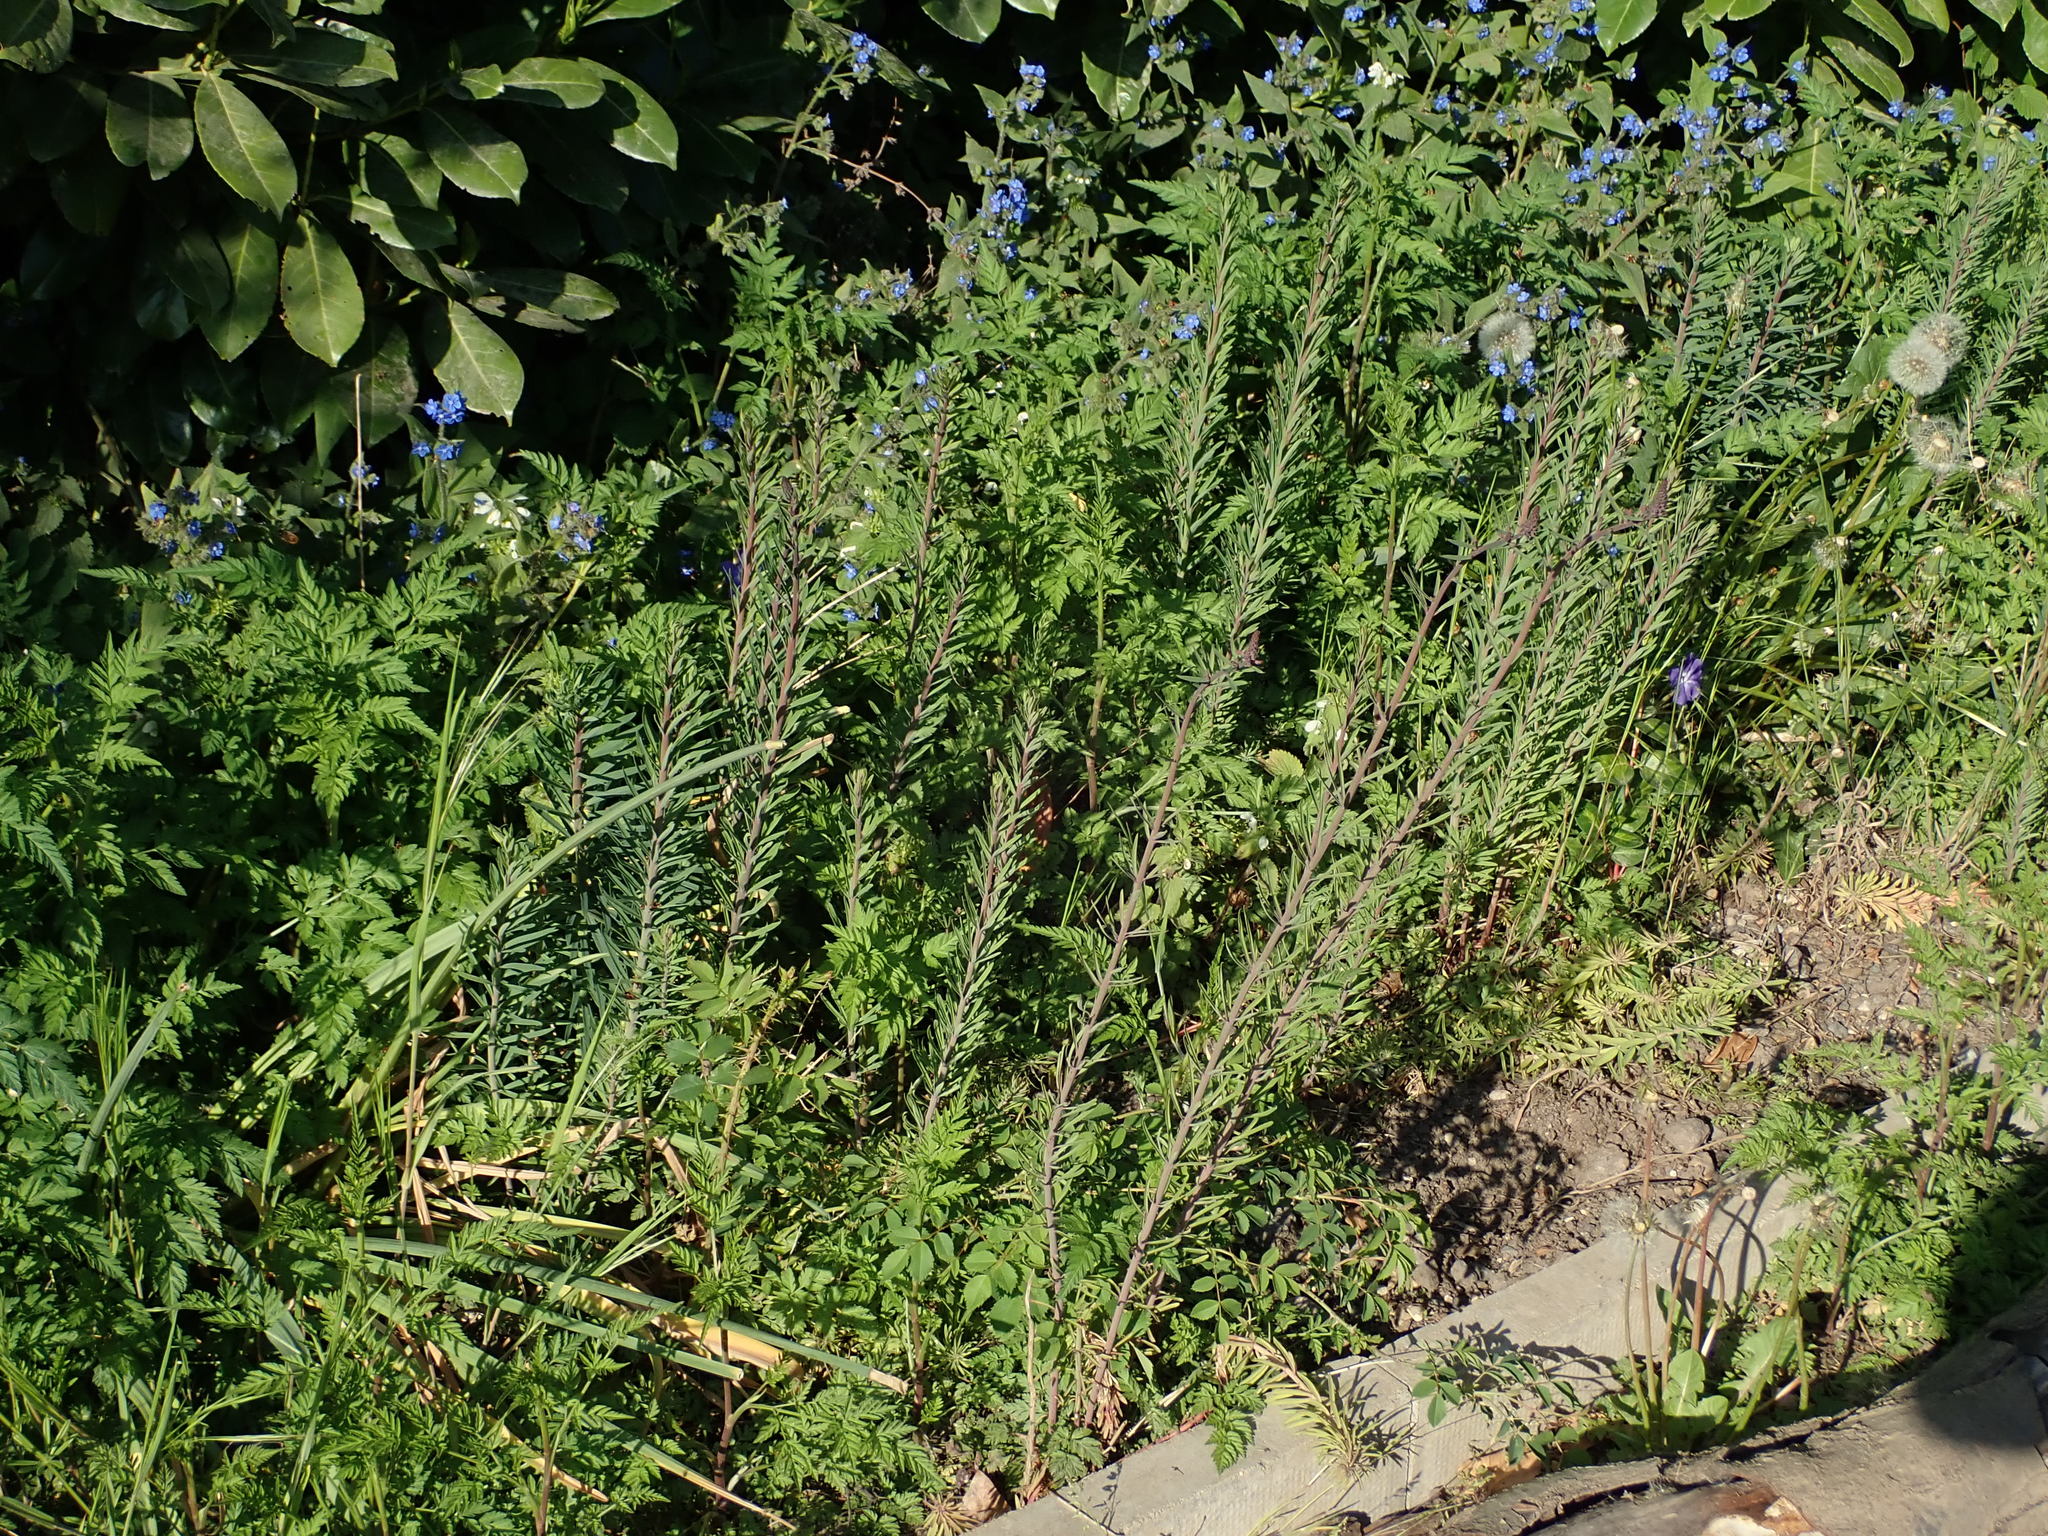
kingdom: Plantae
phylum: Tracheophyta
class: Magnoliopsida
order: Lamiales
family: Plantaginaceae
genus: Linaria
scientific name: Linaria purpurea
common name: Purple toadflax
